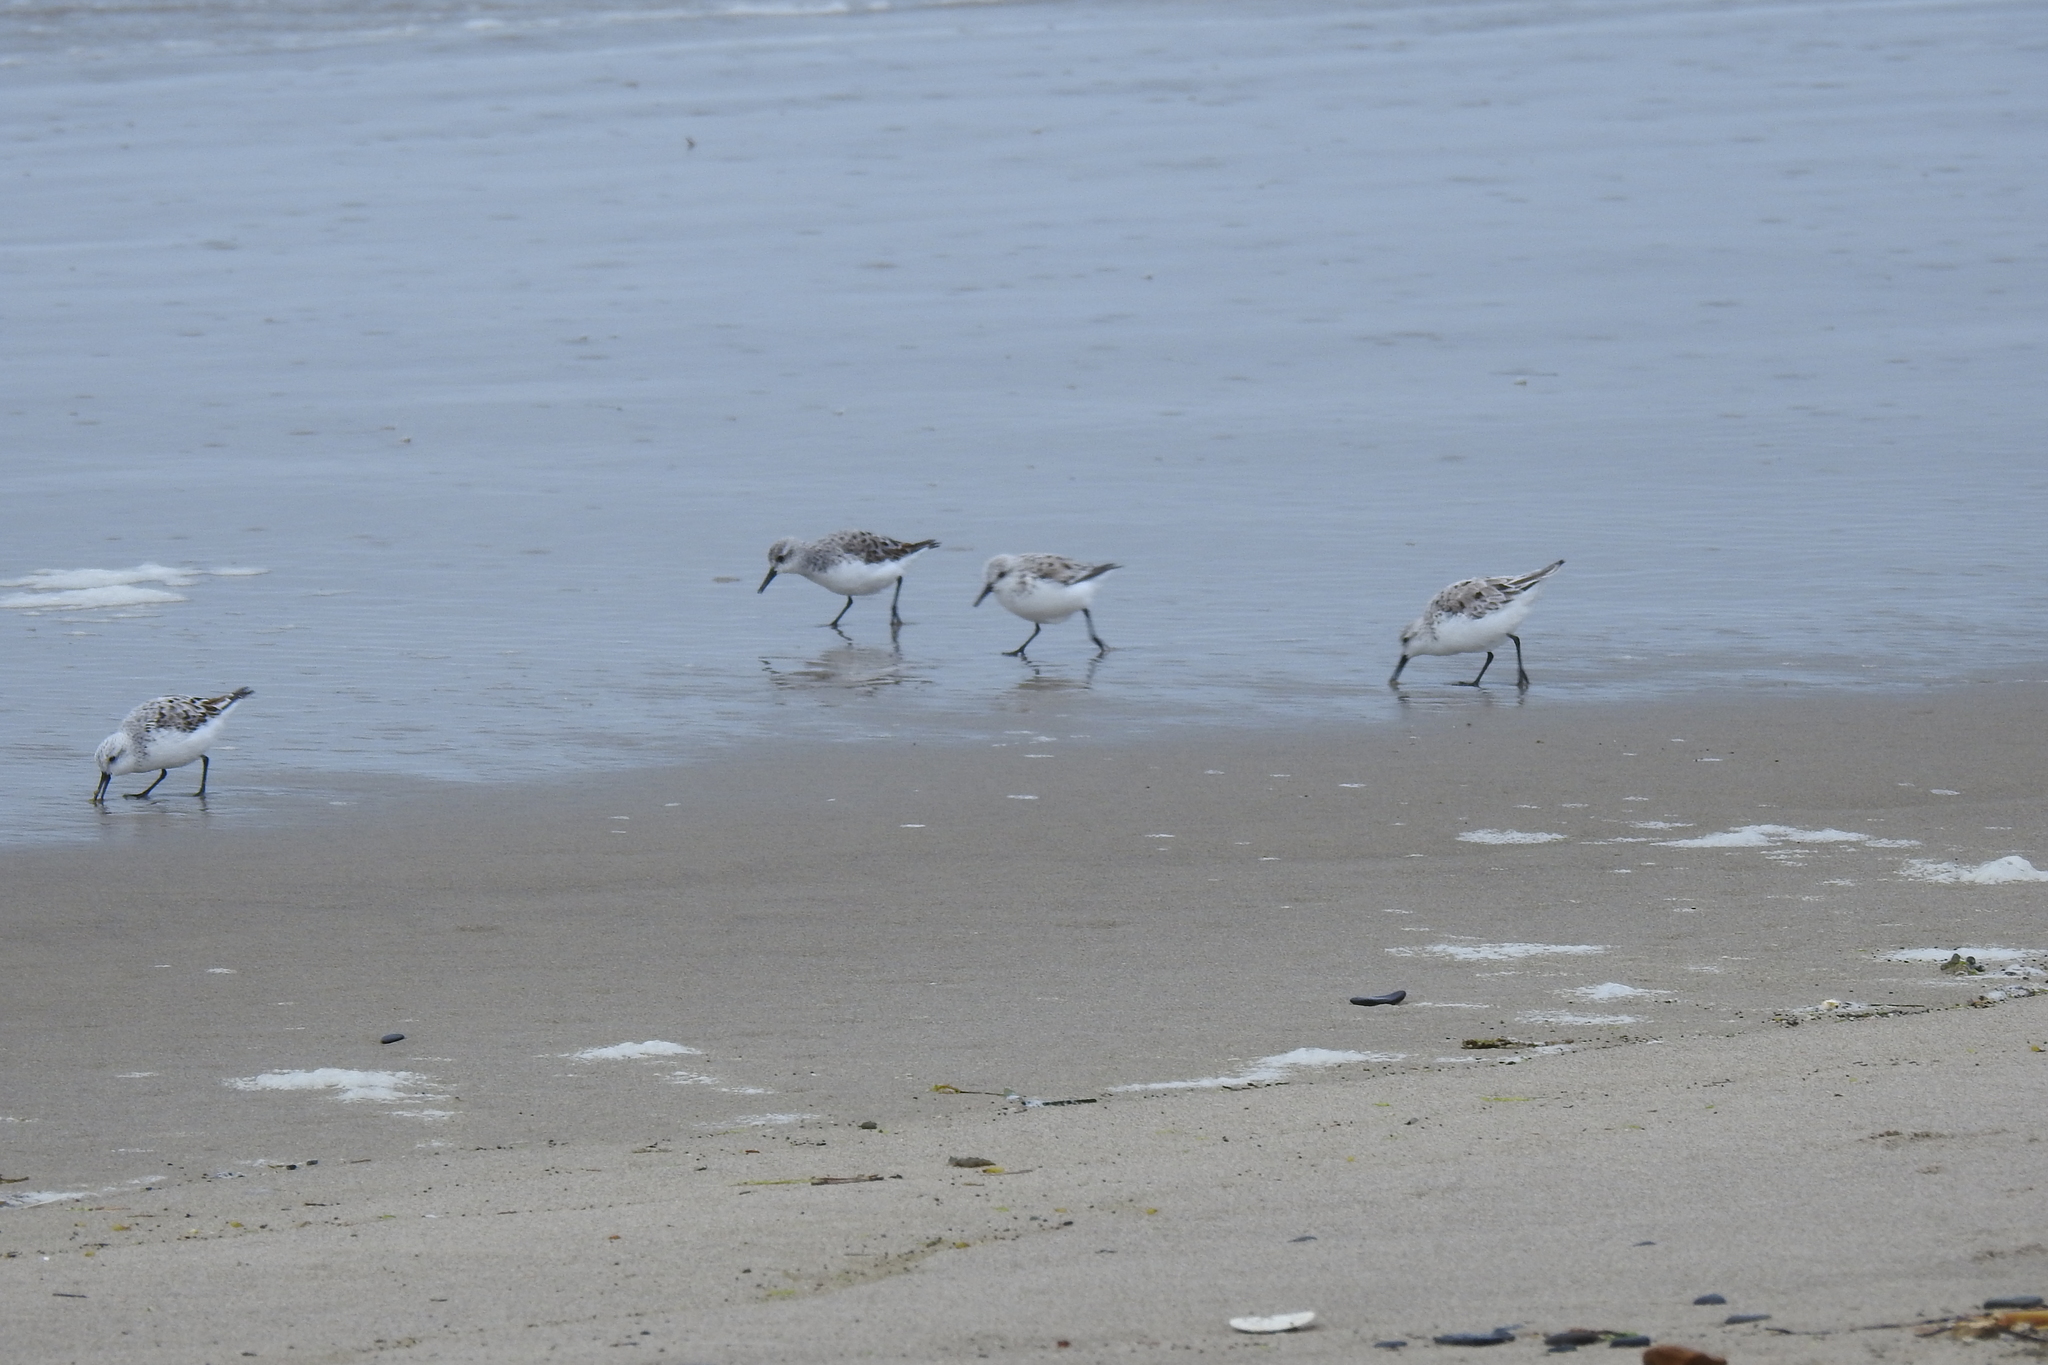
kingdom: Animalia
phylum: Chordata
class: Aves
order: Charadriiformes
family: Scolopacidae
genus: Calidris
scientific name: Calidris alba
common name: Sanderling
